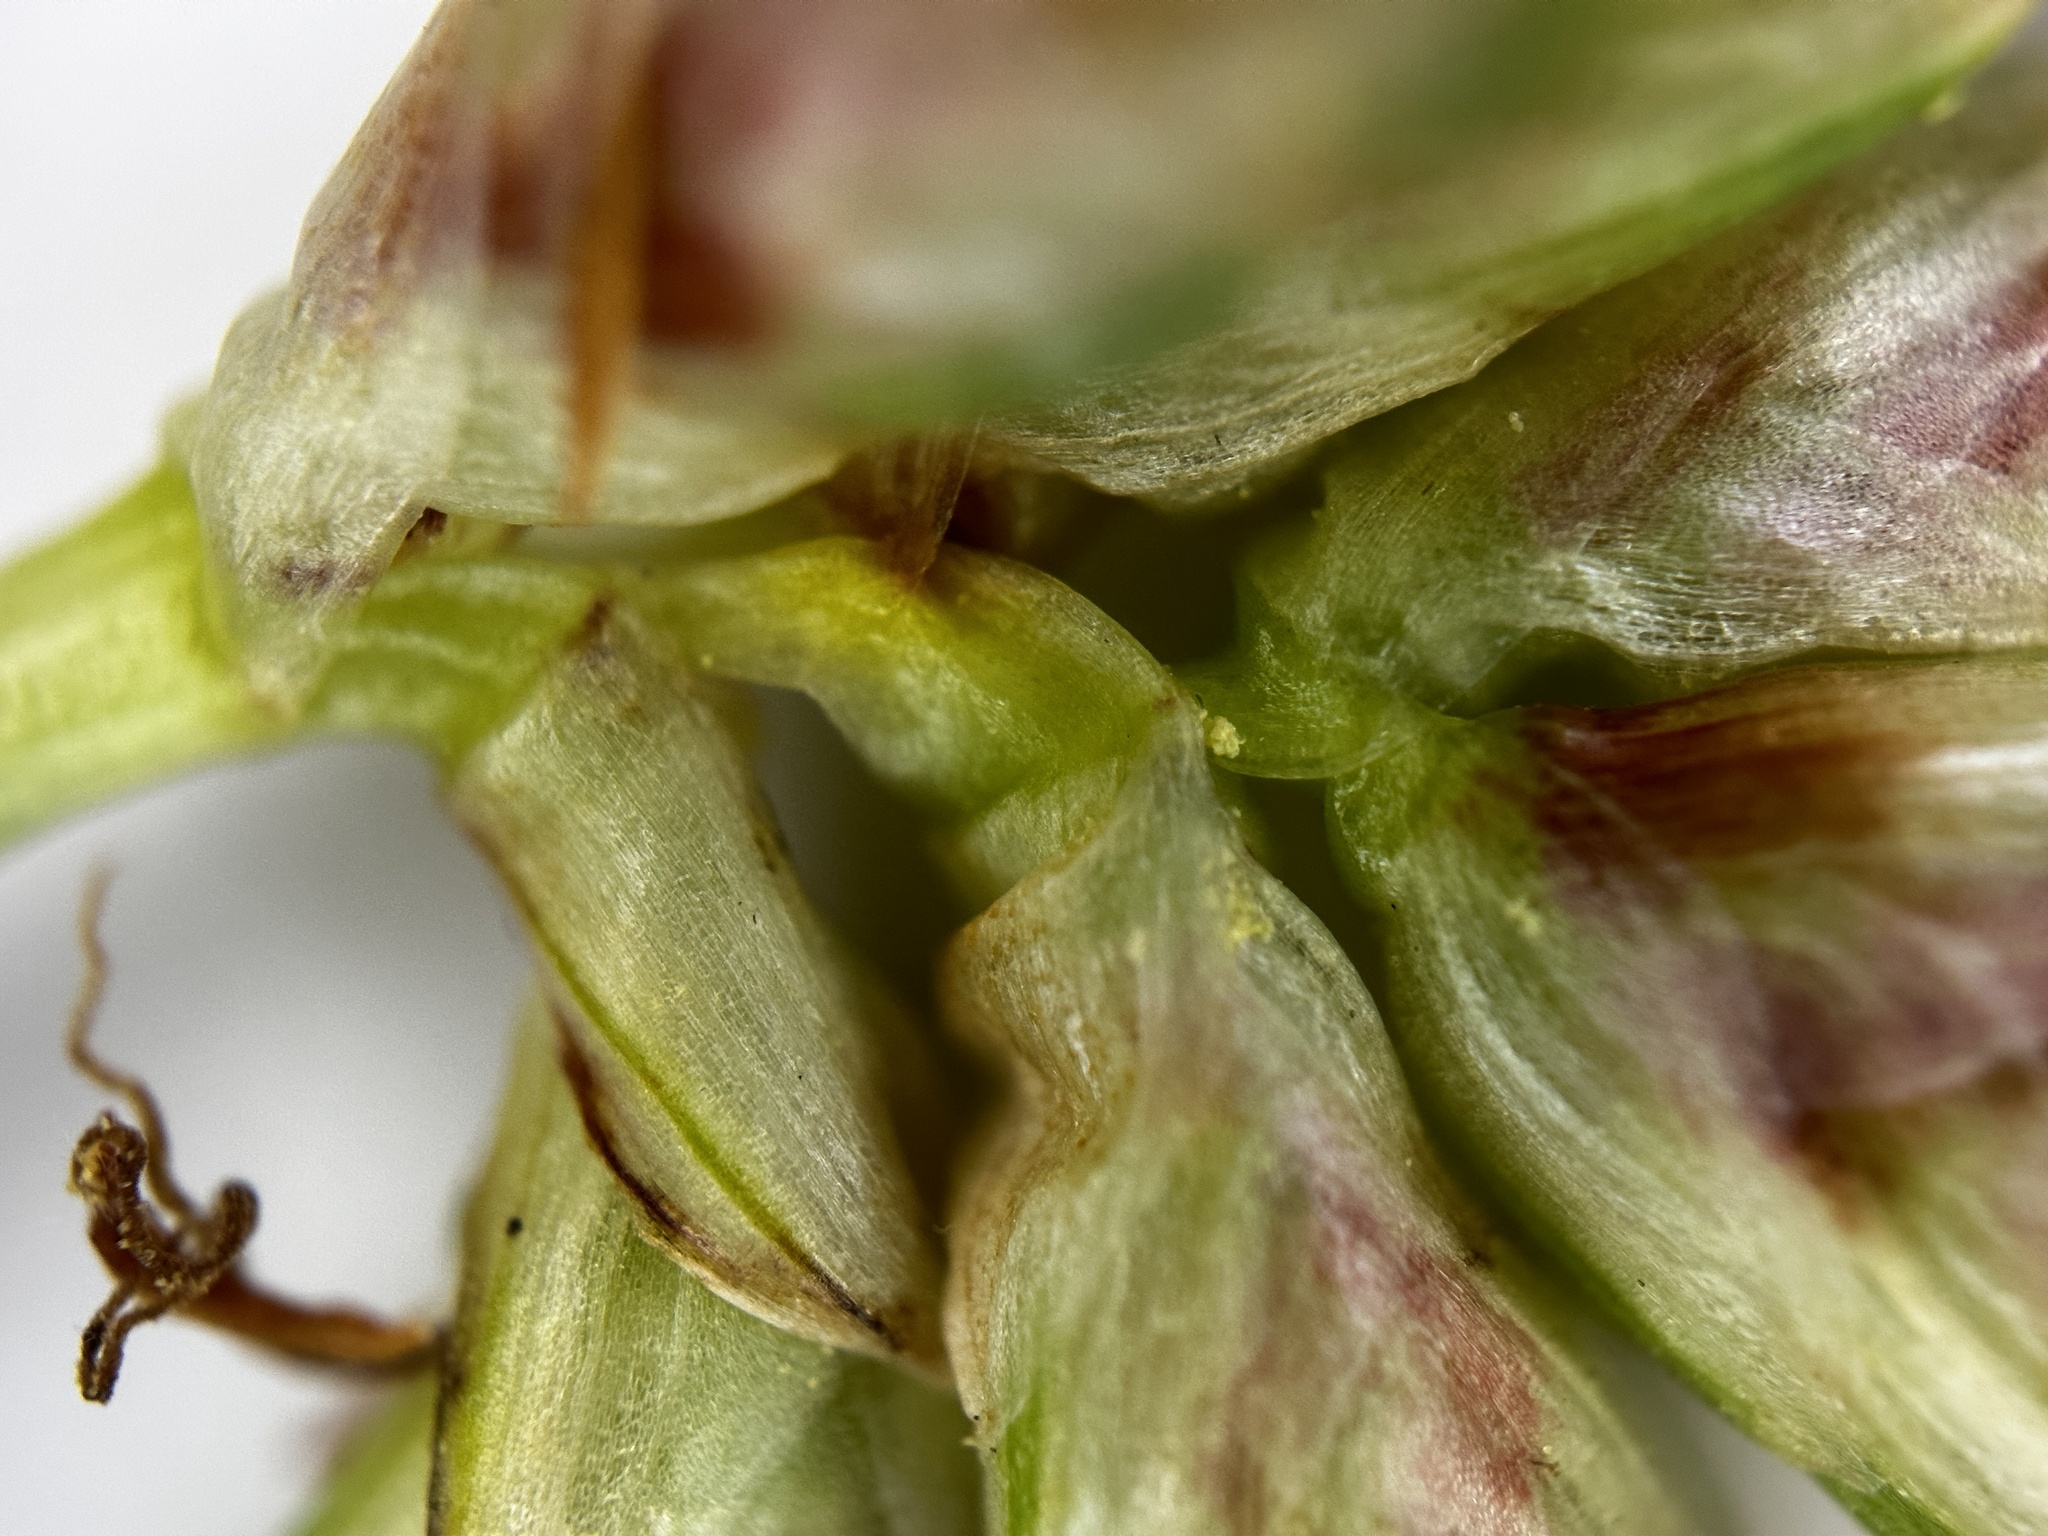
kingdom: Plantae
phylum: Tracheophyta
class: Liliopsida
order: Poales
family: Cyperaceae
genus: Cyperus
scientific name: Cyperus stoloniferus
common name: Nutgrass
